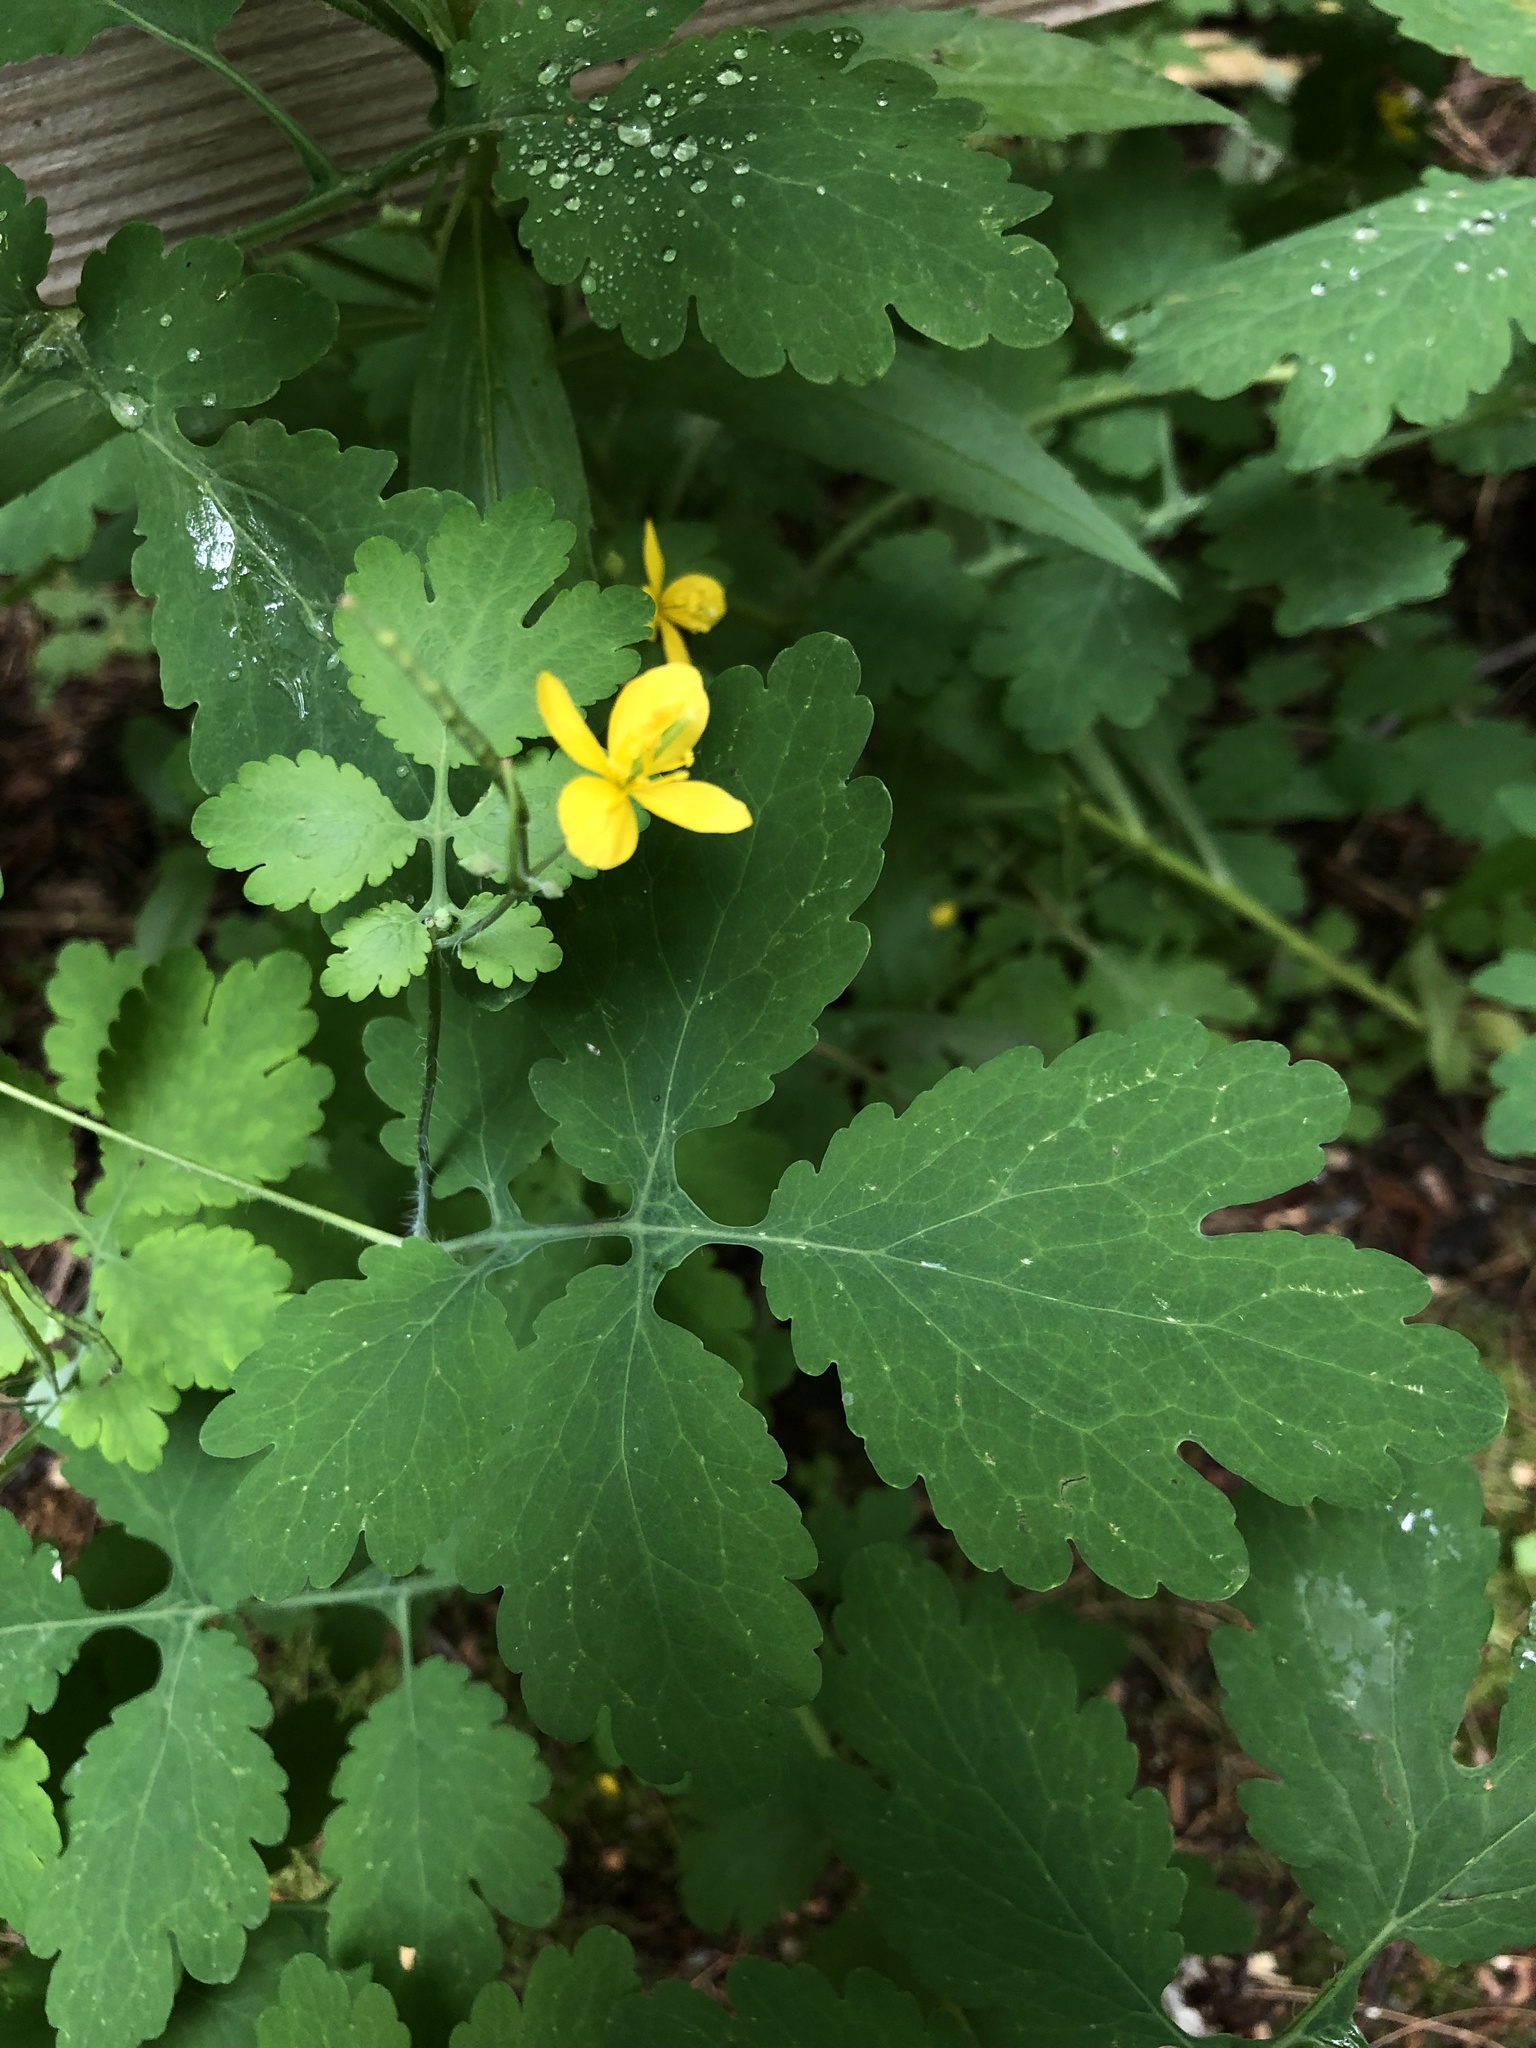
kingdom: Plantae
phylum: Tracheophyta
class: Magnoliopsida
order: Ranunculales
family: Papaveraceae
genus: Chelidonium
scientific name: Chelidonium majus
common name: Greater celandine
